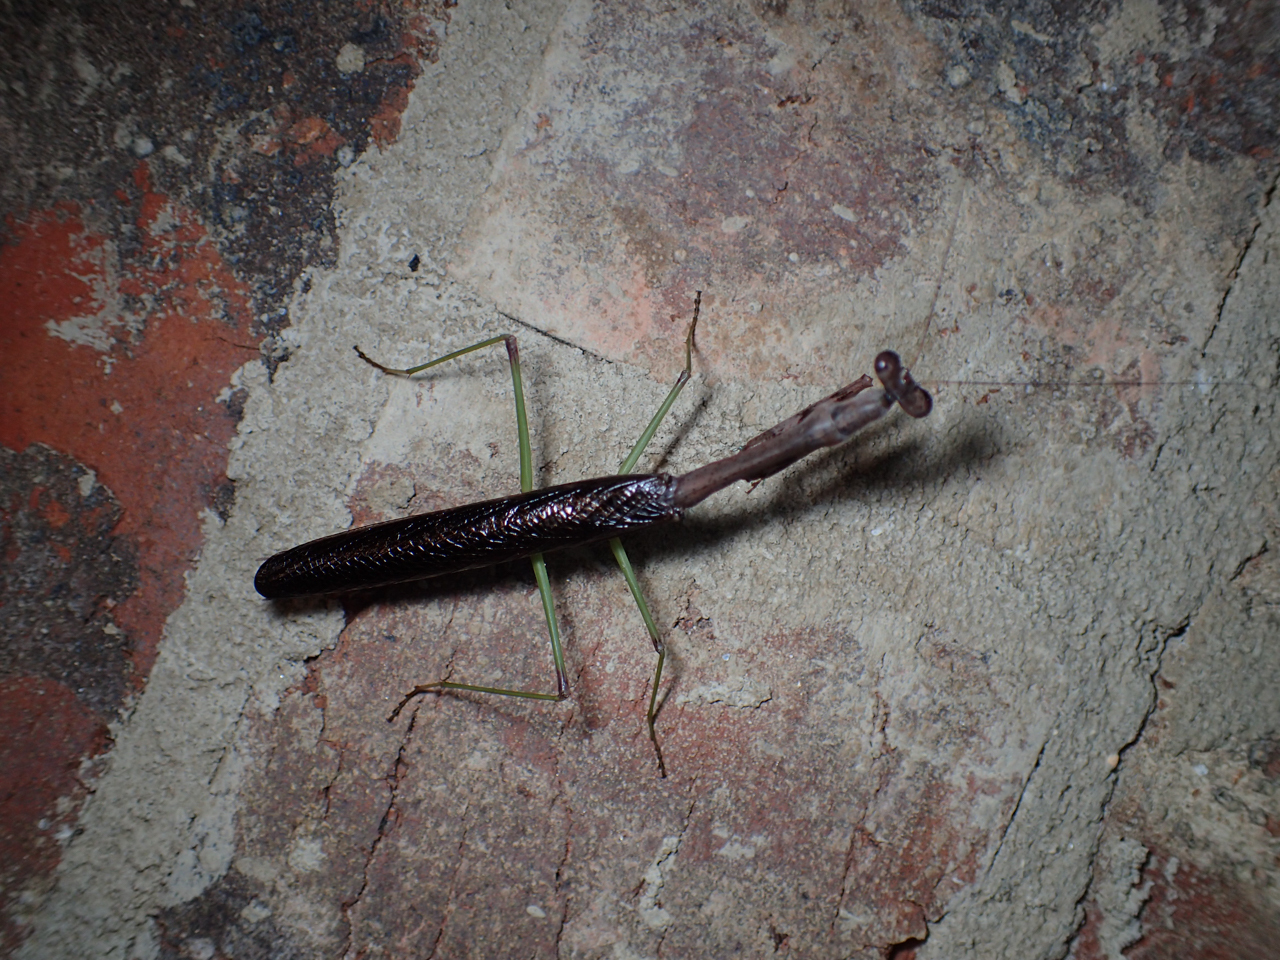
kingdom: Animalia
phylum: Arthropoda
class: Insecta
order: Mantodea
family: Mantidae
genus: Stagmomantis
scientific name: Stagmomantis carolina
